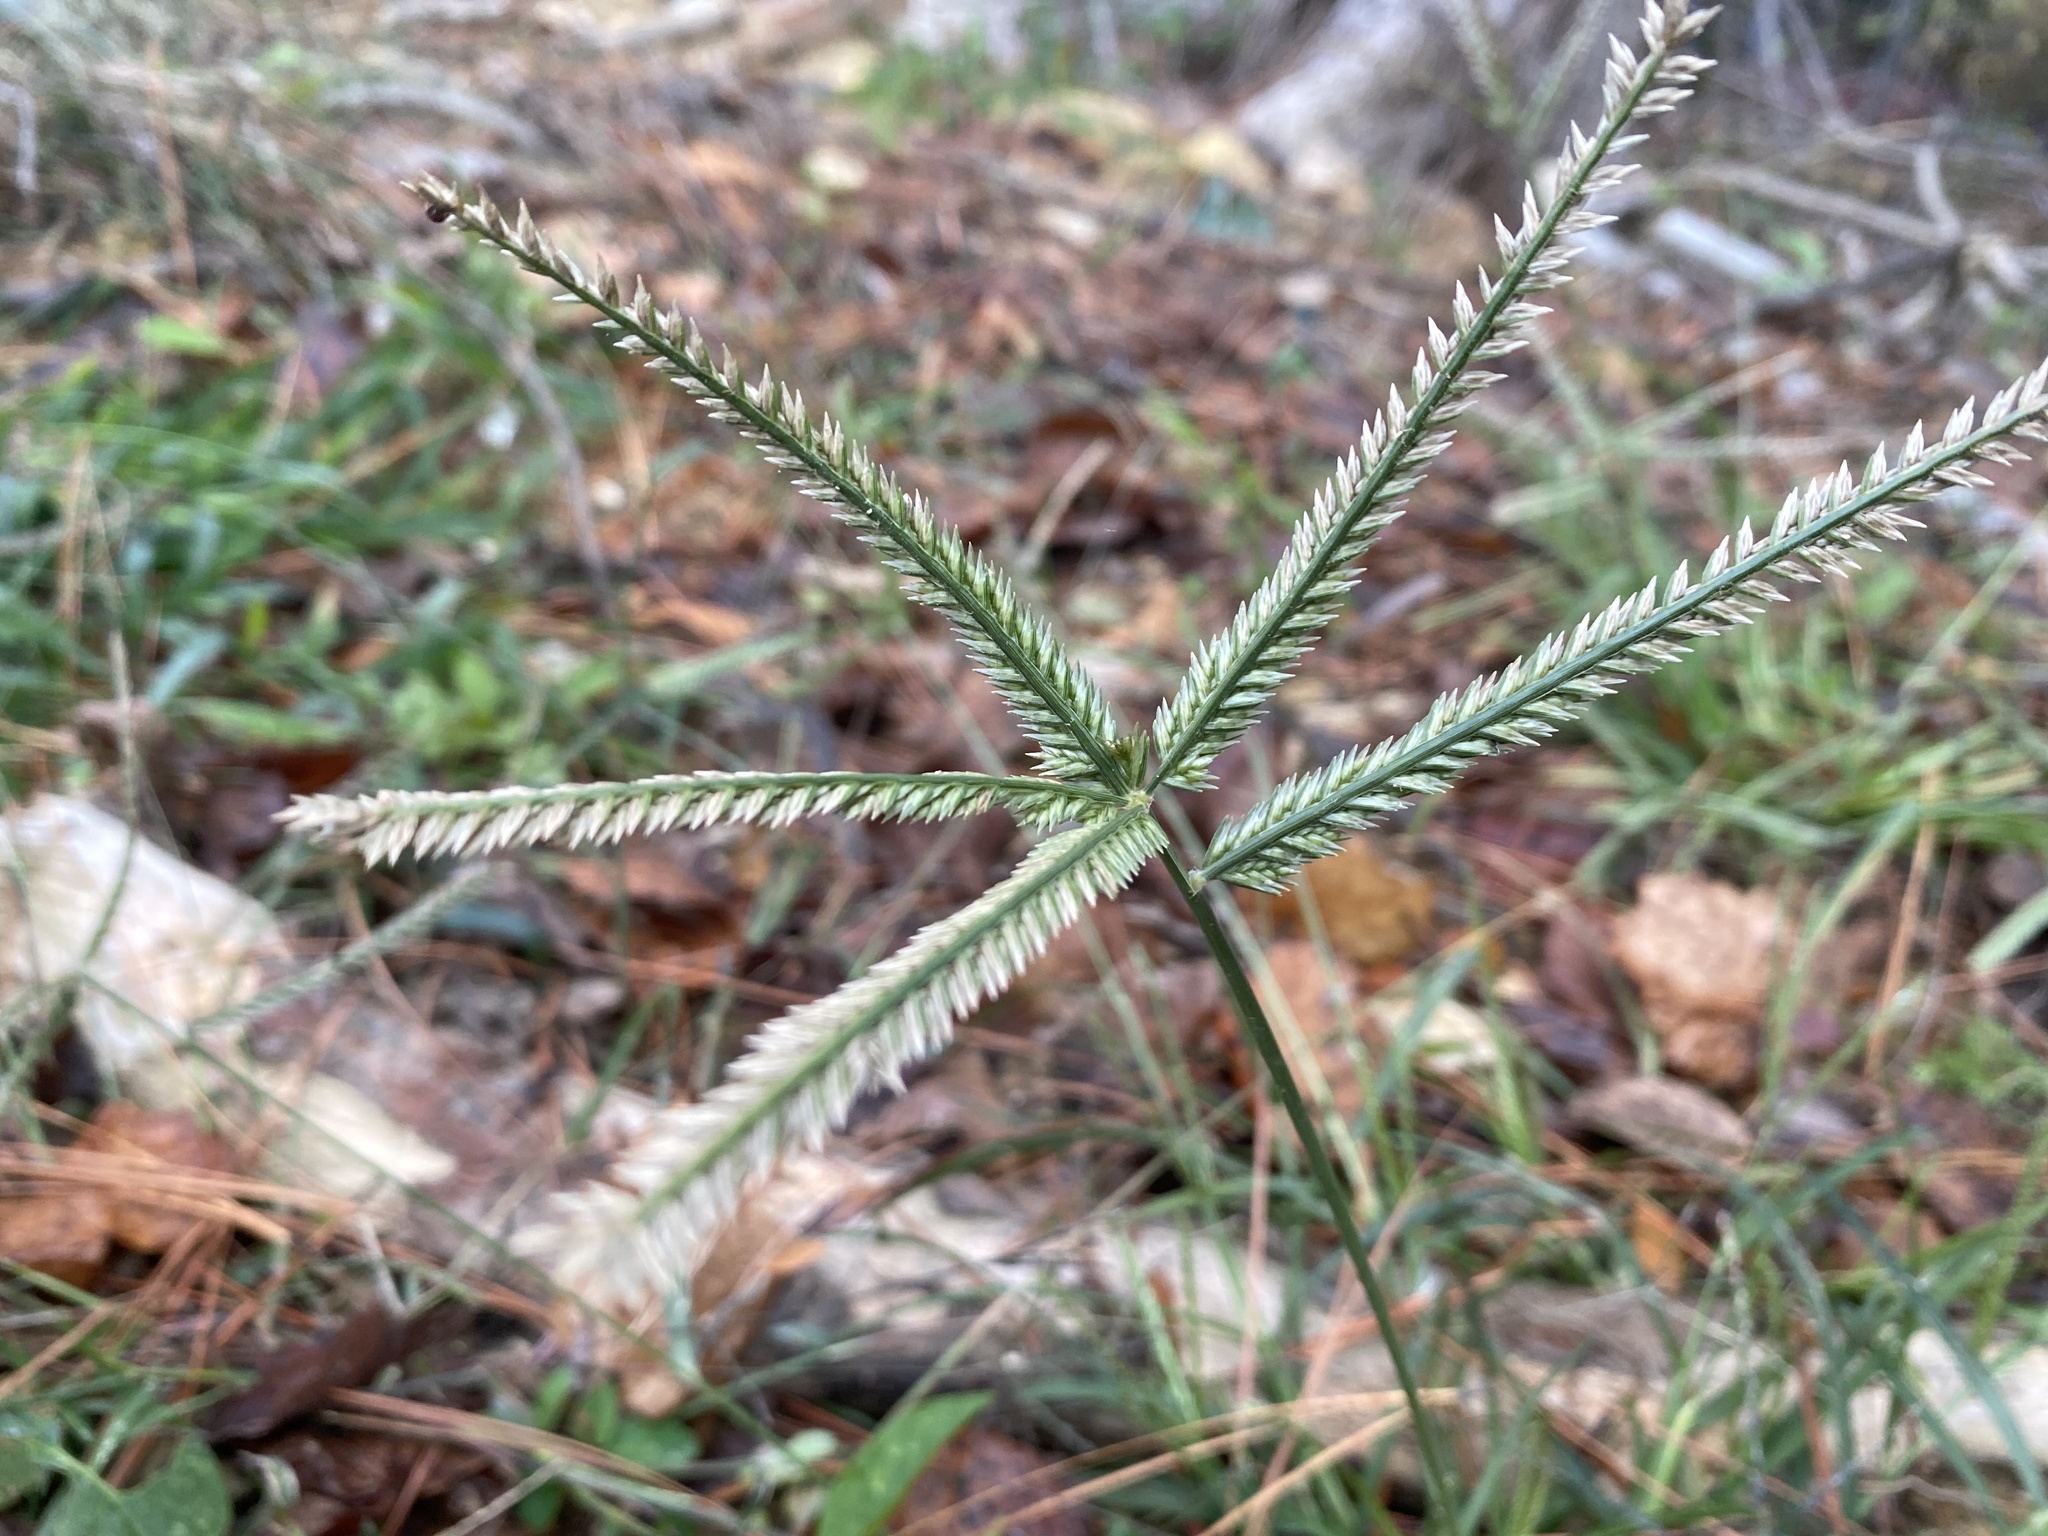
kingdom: Plantae
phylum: Tracheophyta
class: Liliopsida
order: Poales
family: Poaceae
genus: Eleusine
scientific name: Eleusine indica
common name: Yard-grass
